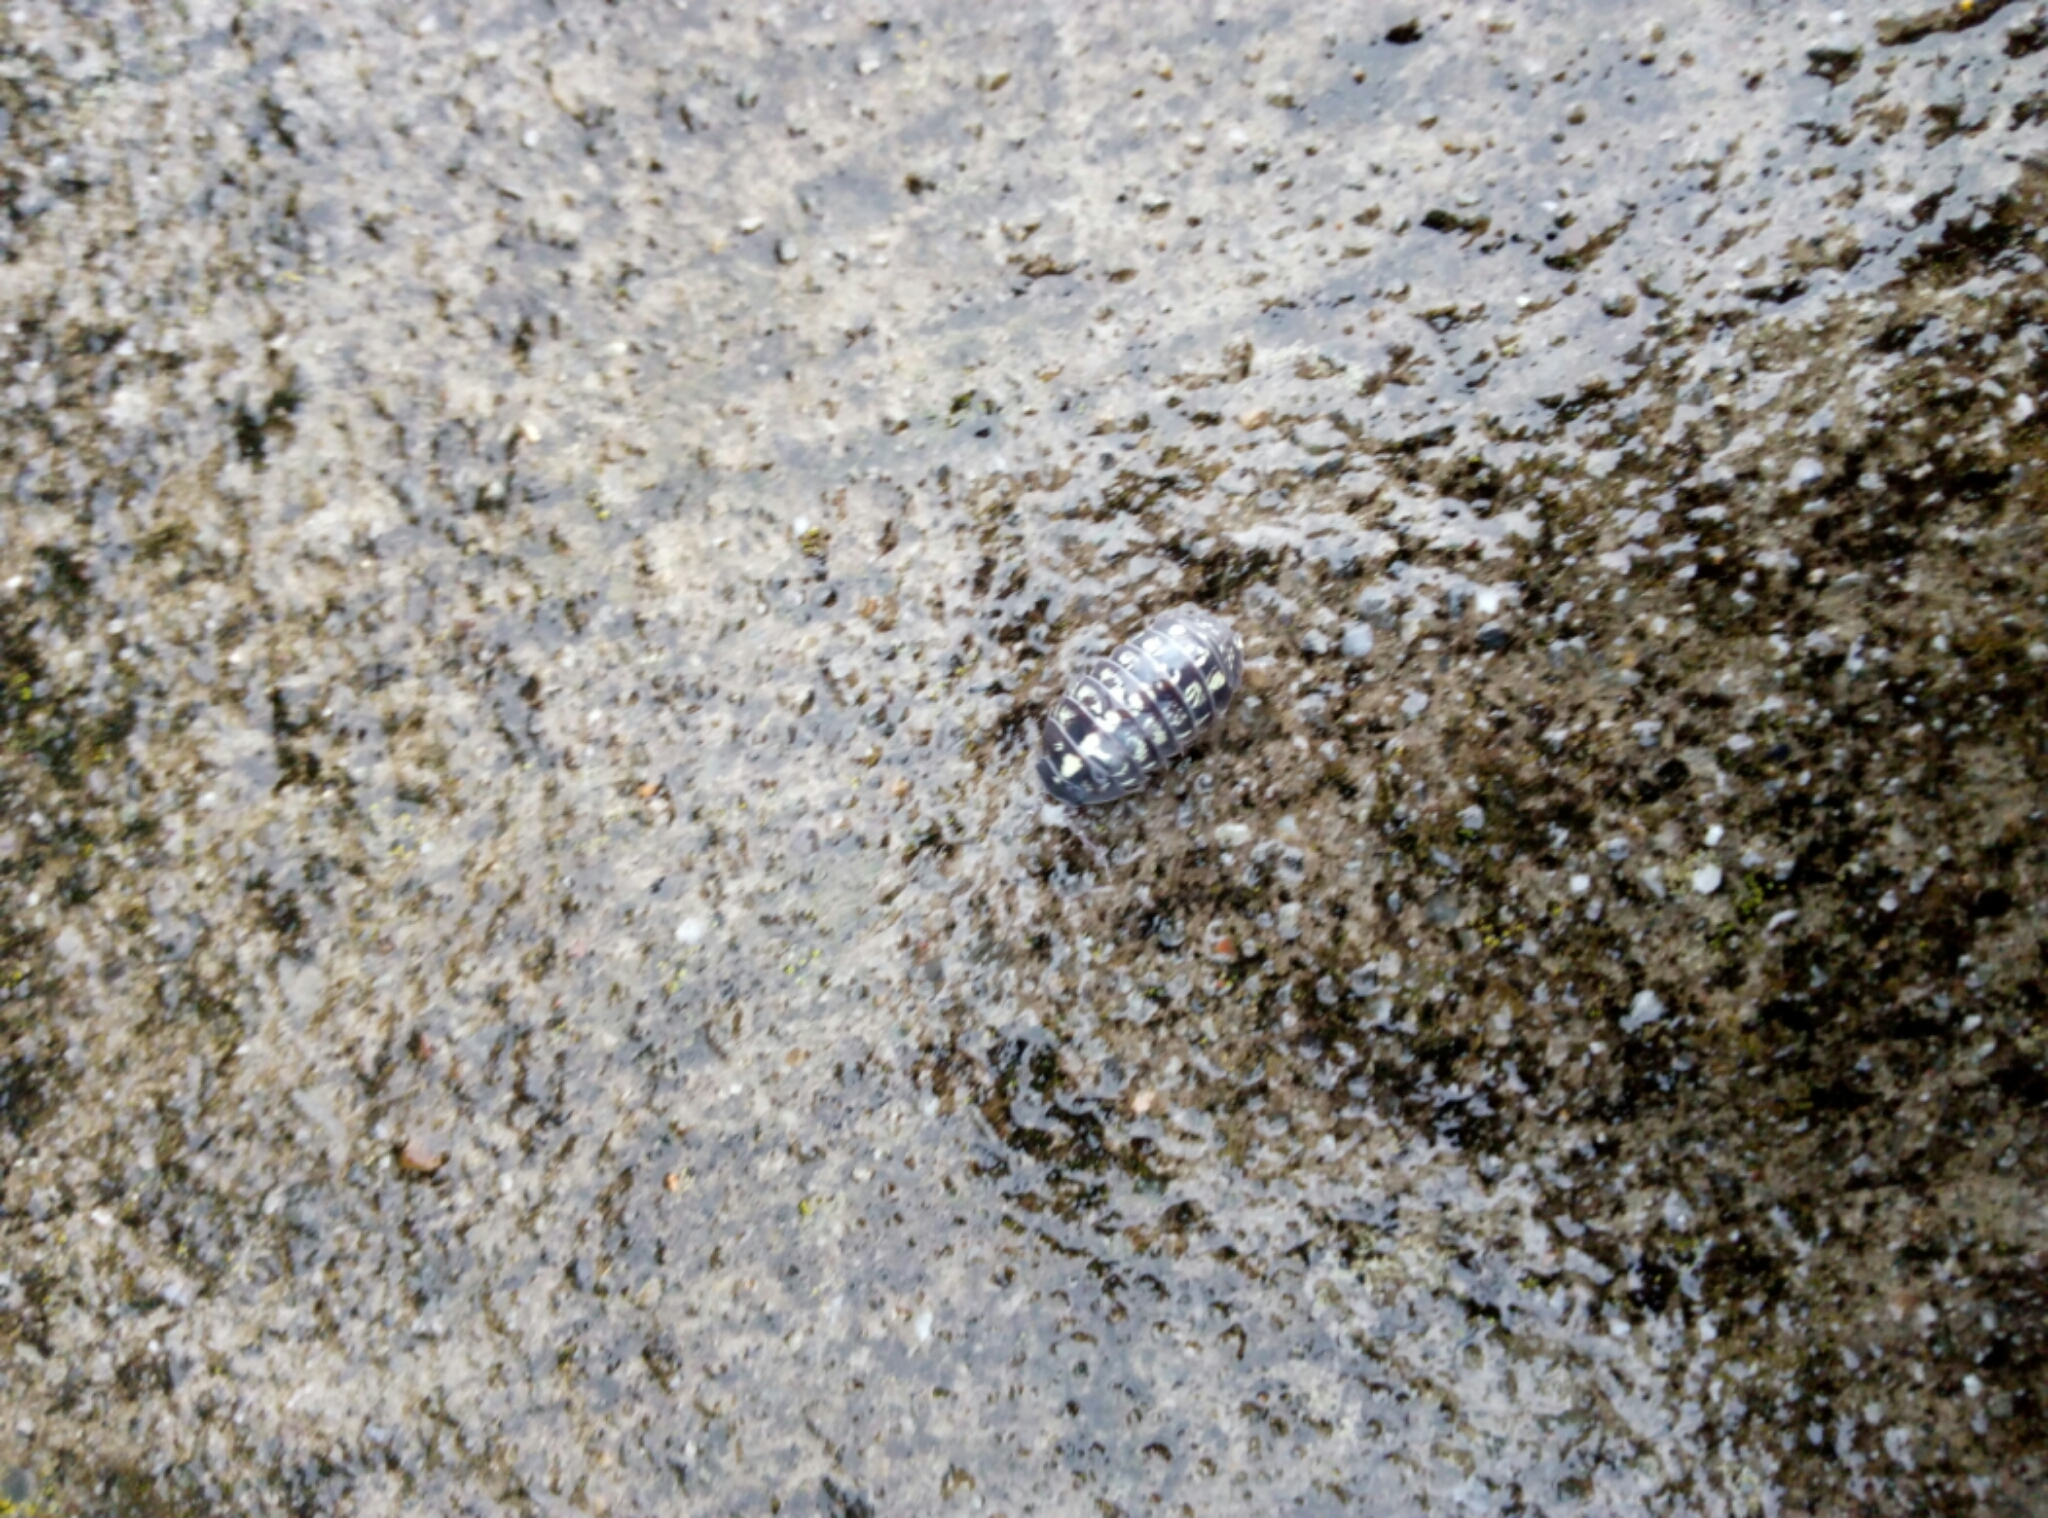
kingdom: Animalia
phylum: Arthropoda
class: Malacostraca
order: Isopoda
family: Armadillidiidae
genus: Armadillidium
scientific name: Armadillidium vulgare
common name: Common pill woodlouse
